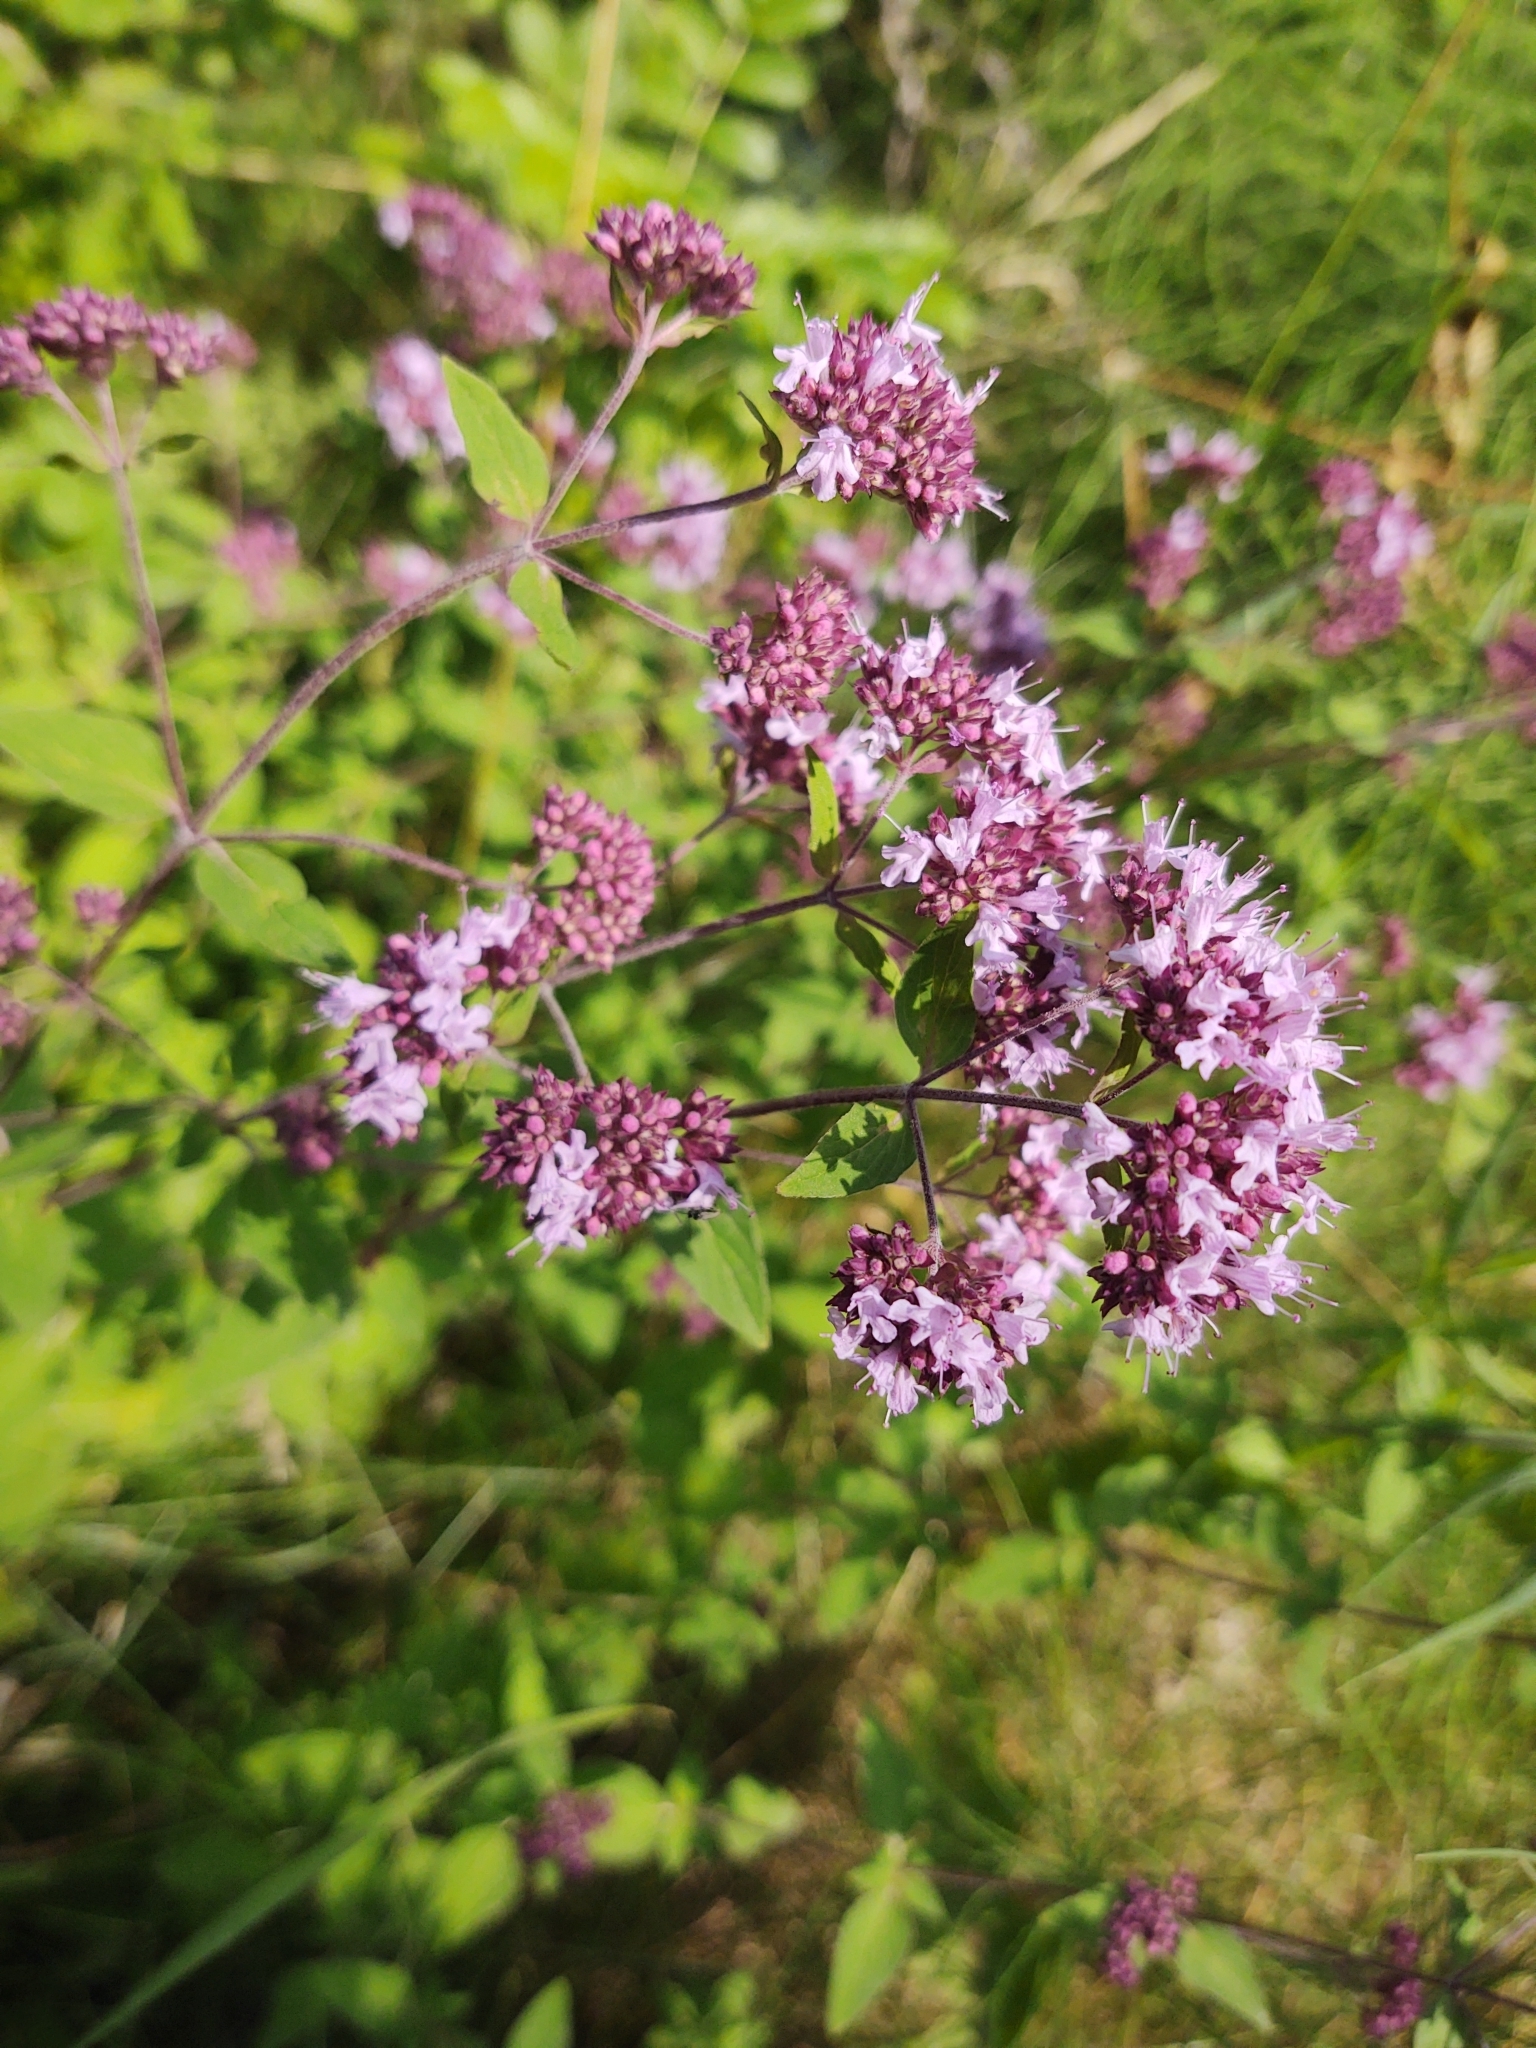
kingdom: Plantae
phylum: Tracheophyta
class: Magnoliopsida
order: Lamiales
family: Lamiaceae
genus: Origanum
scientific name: Origanum vulgare
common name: Wild marjoram
